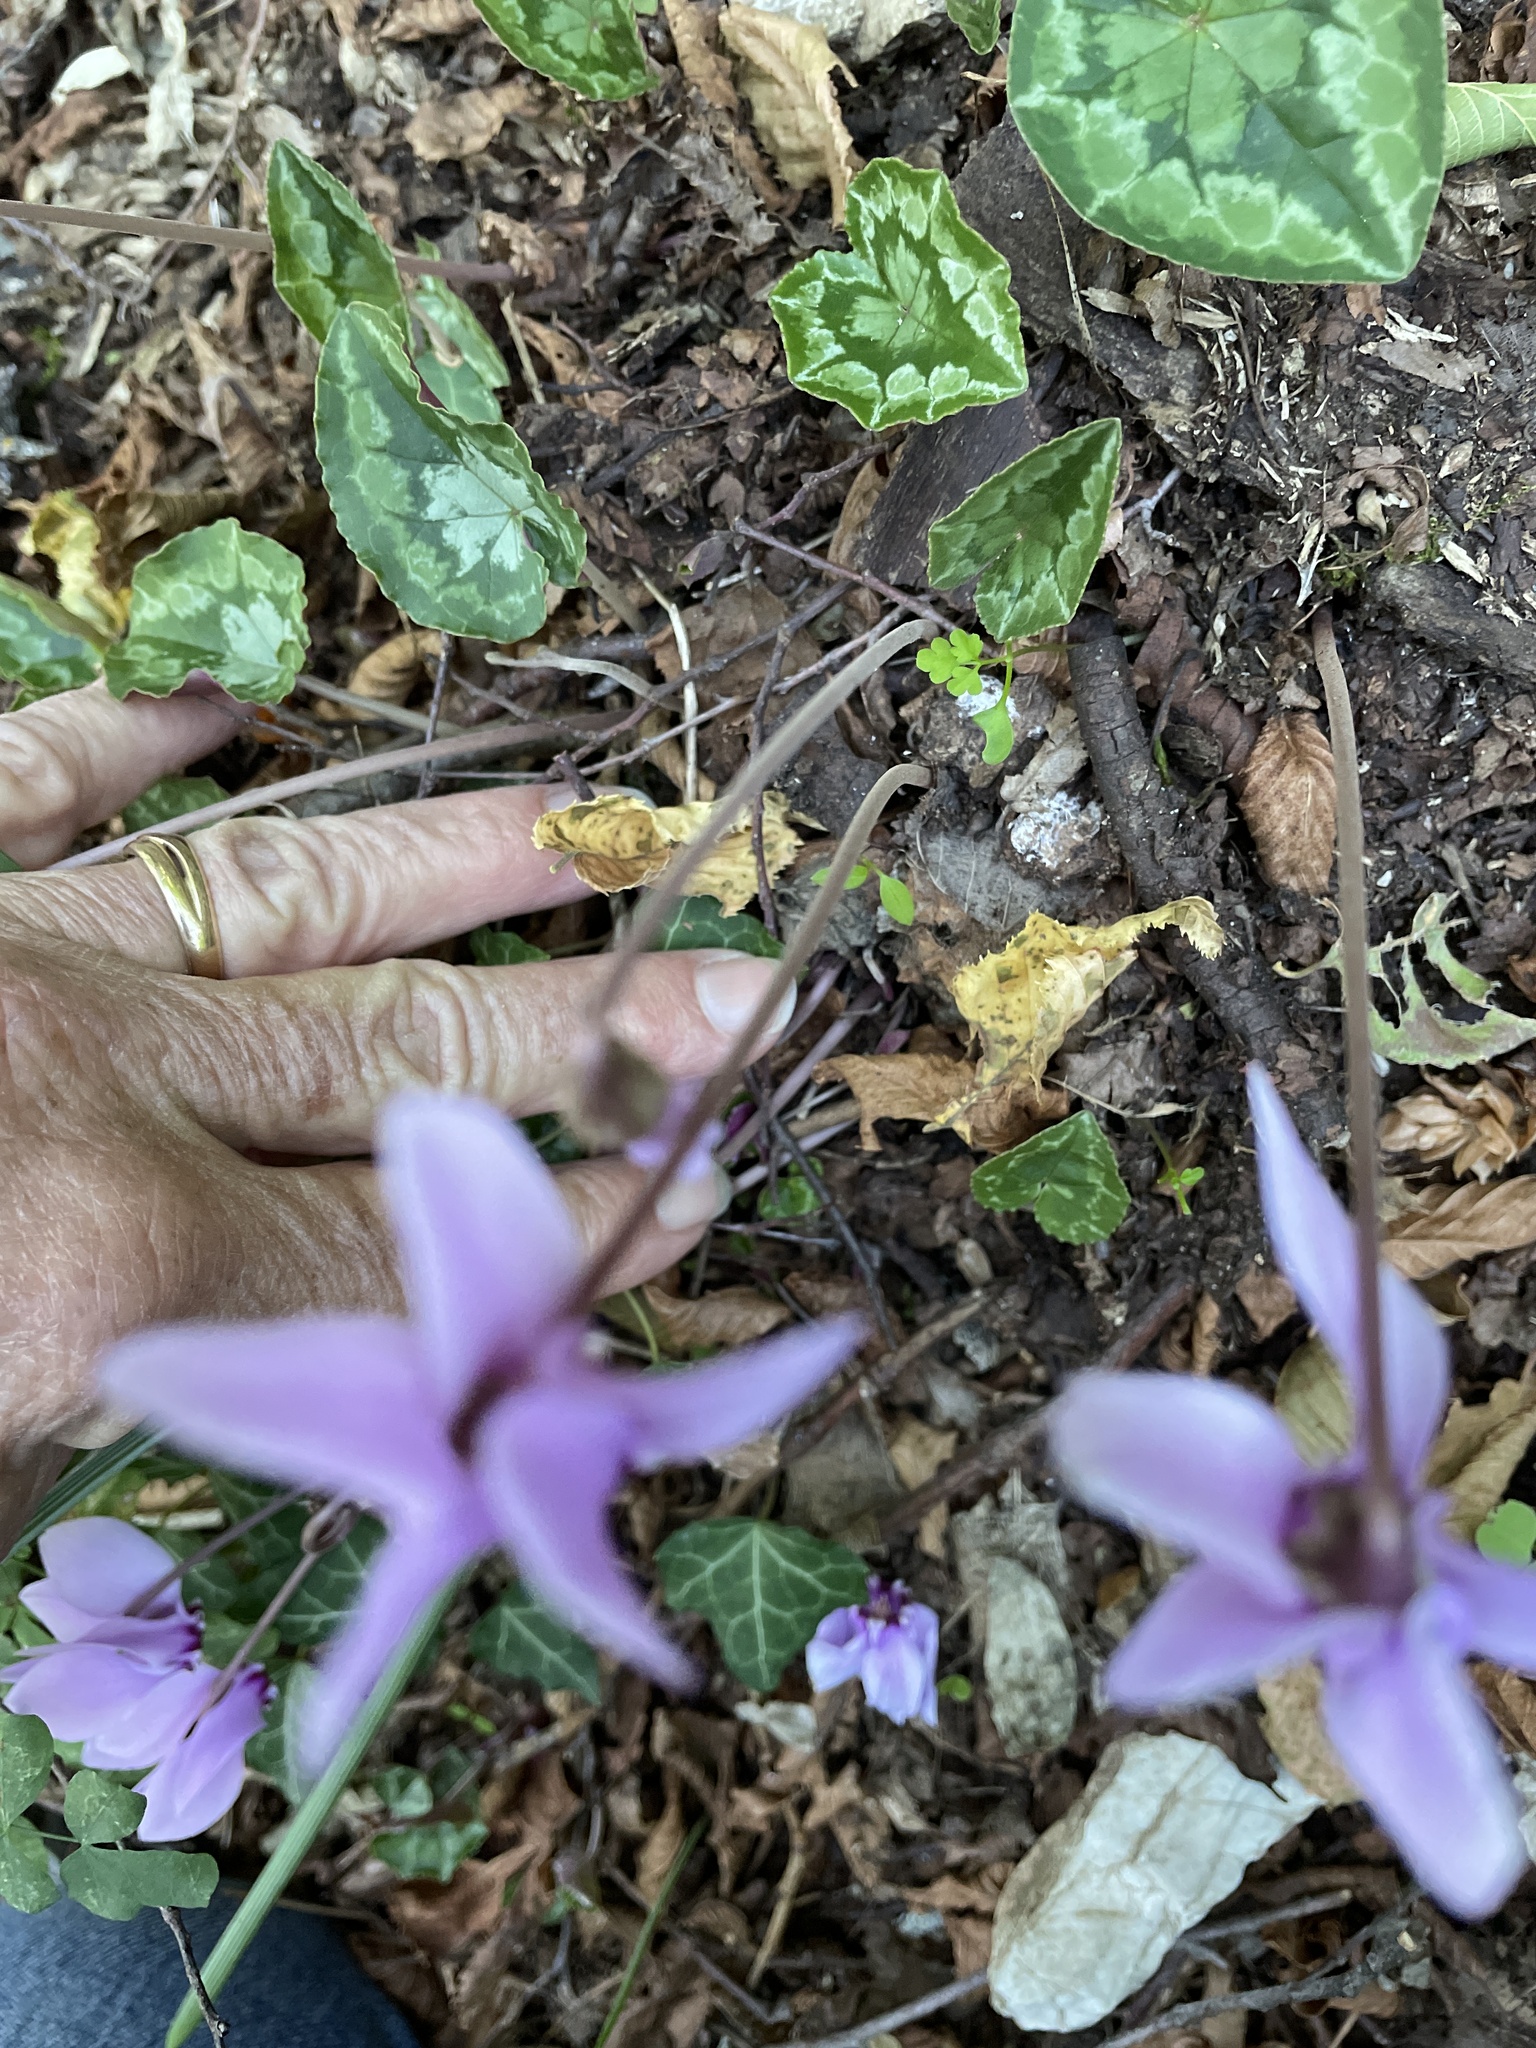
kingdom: Plantae
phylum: Tracheophyta
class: Magnoliopsida
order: Ericales
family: Primulaceae
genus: Cyclamen
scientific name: Cyclamen hederifolium
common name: Sowbread
